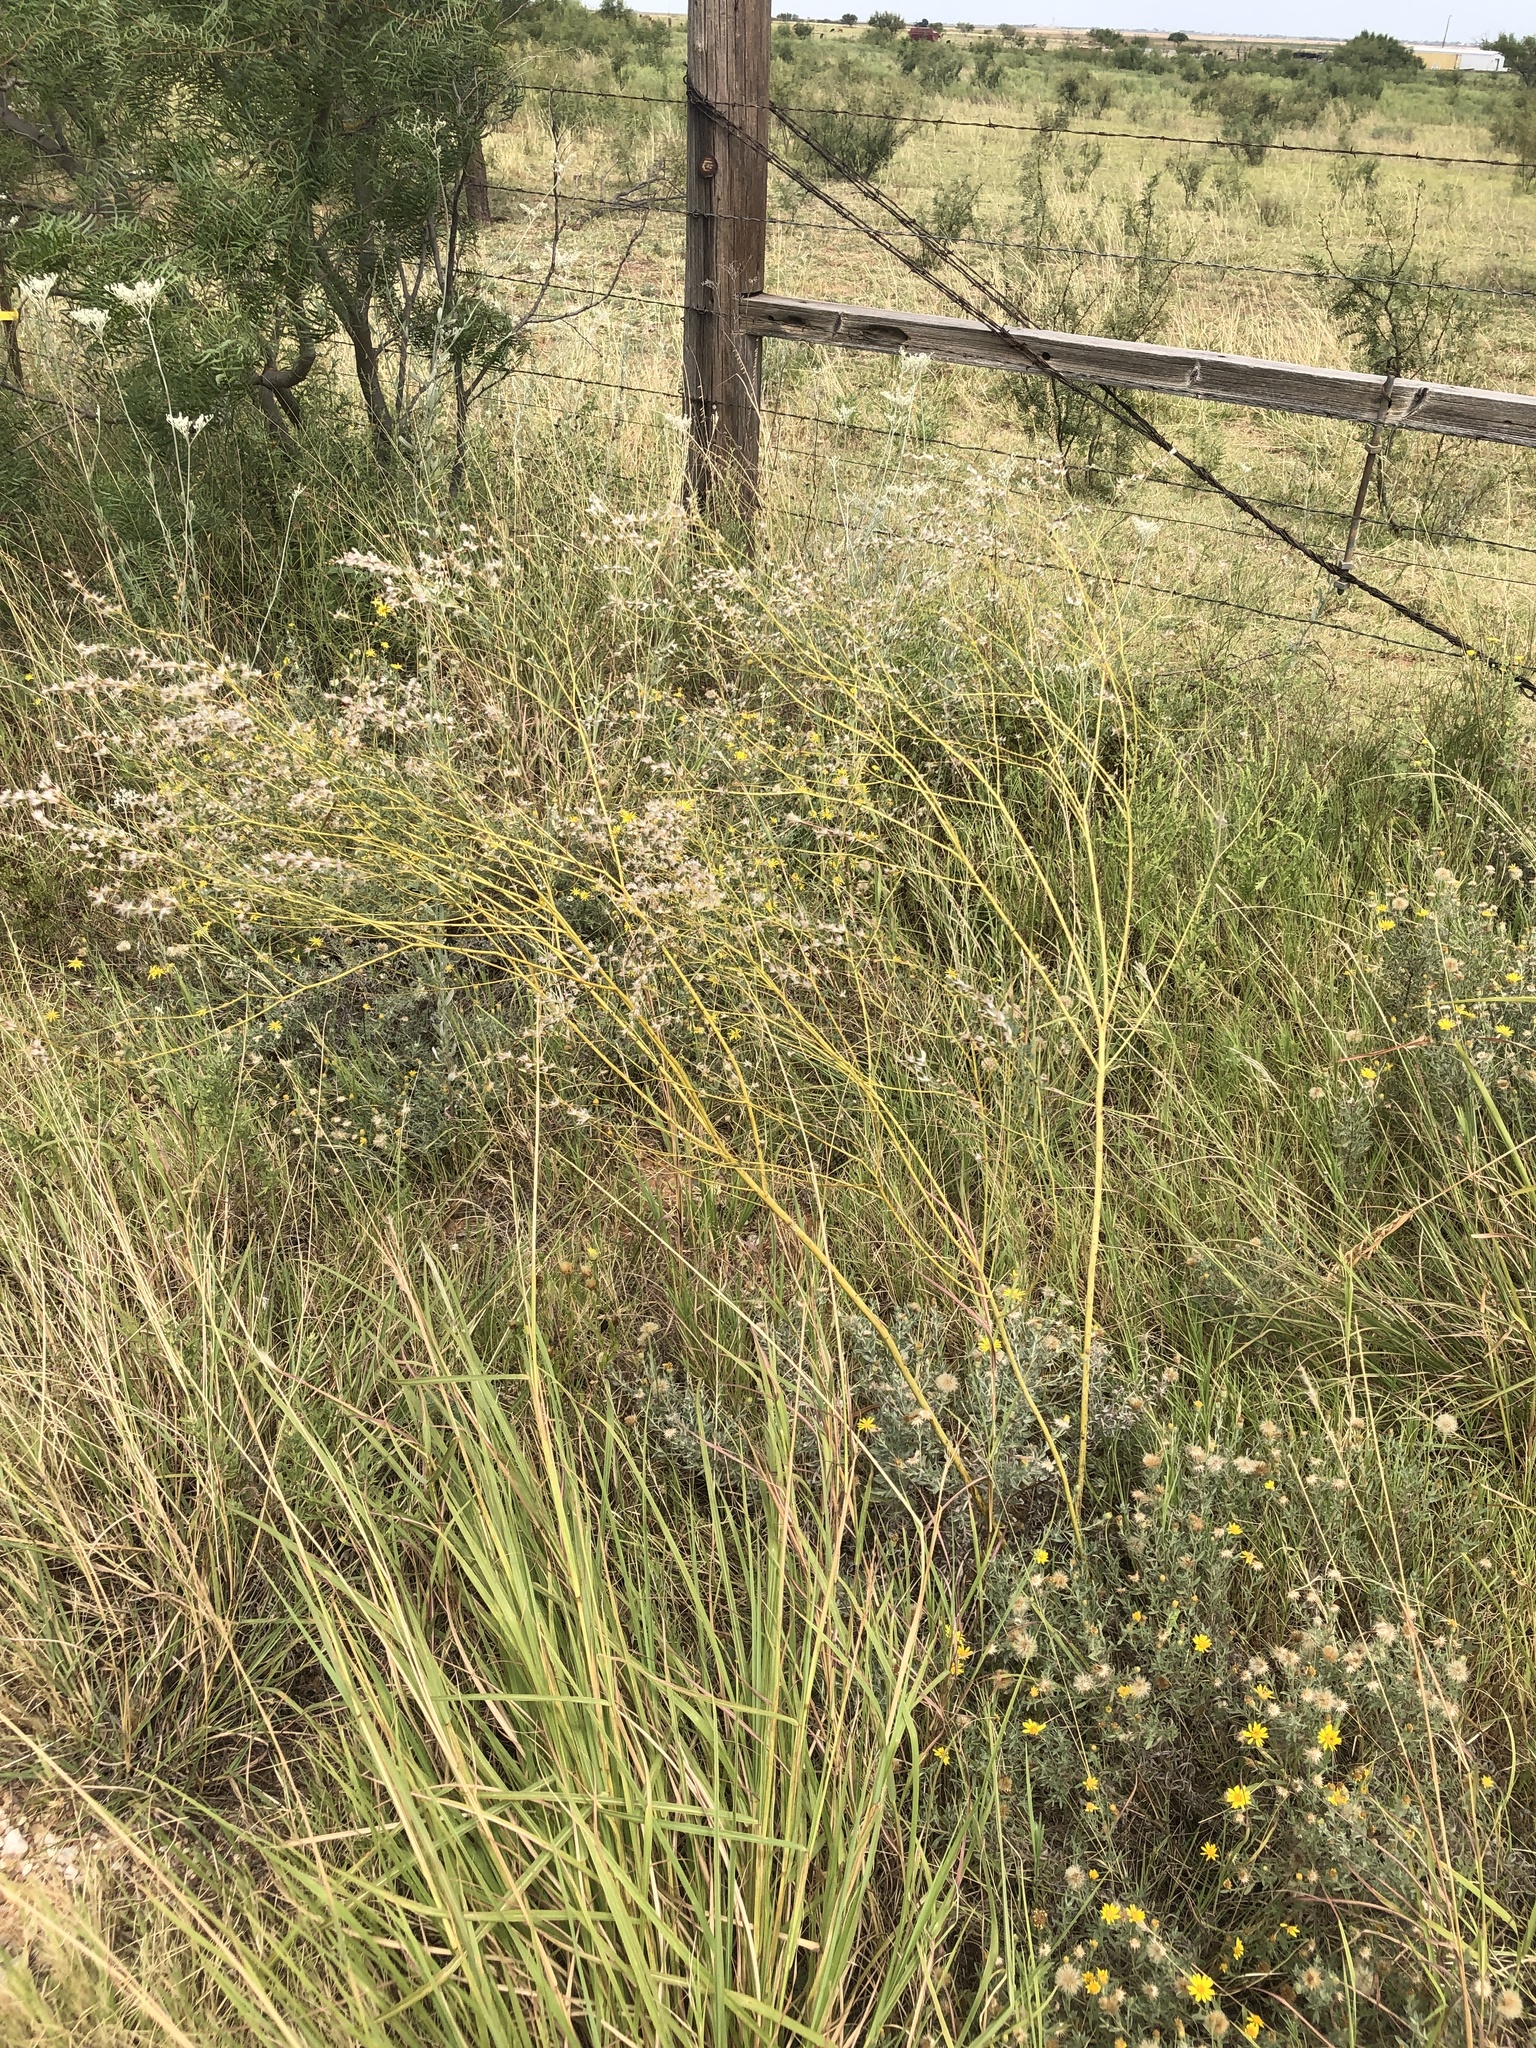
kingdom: Plantae
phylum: Tracheophyta
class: Magnoliopsida
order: Fabales
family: Fabaceae
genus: Dalea
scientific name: Dalea enneandra
